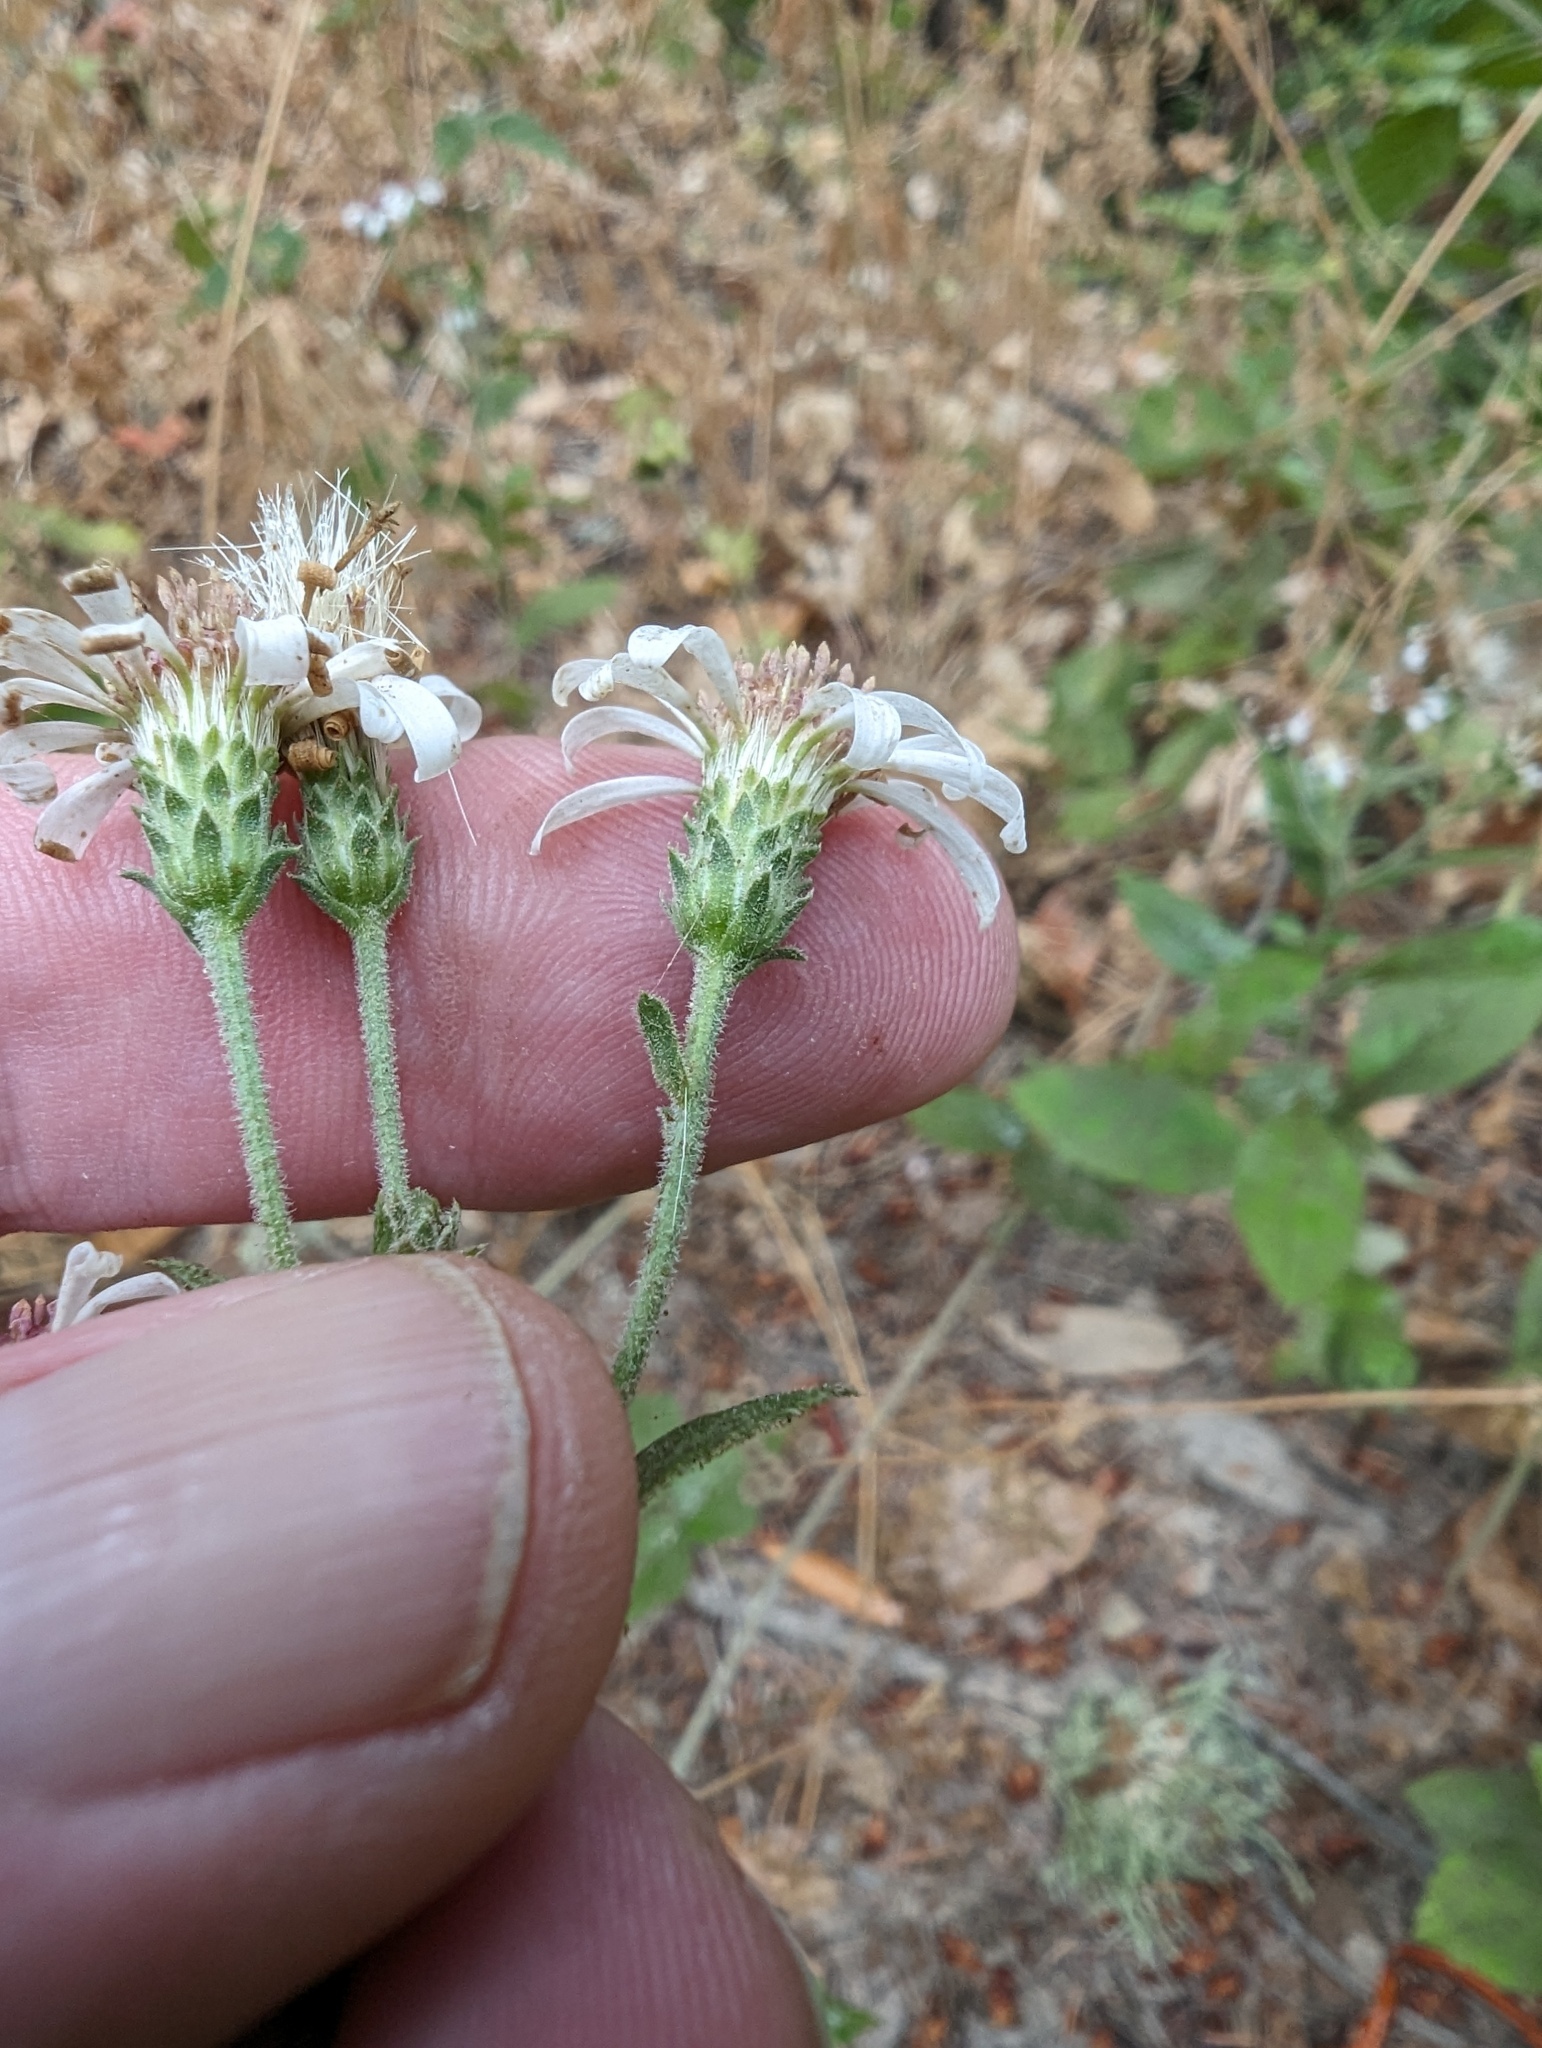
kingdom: Plantae
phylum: Tracheophyta
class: Magnoliopsida
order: Asterales
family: Asteraceae
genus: Eurybia
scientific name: Eurybia radulina
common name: Rough-leaved aster
